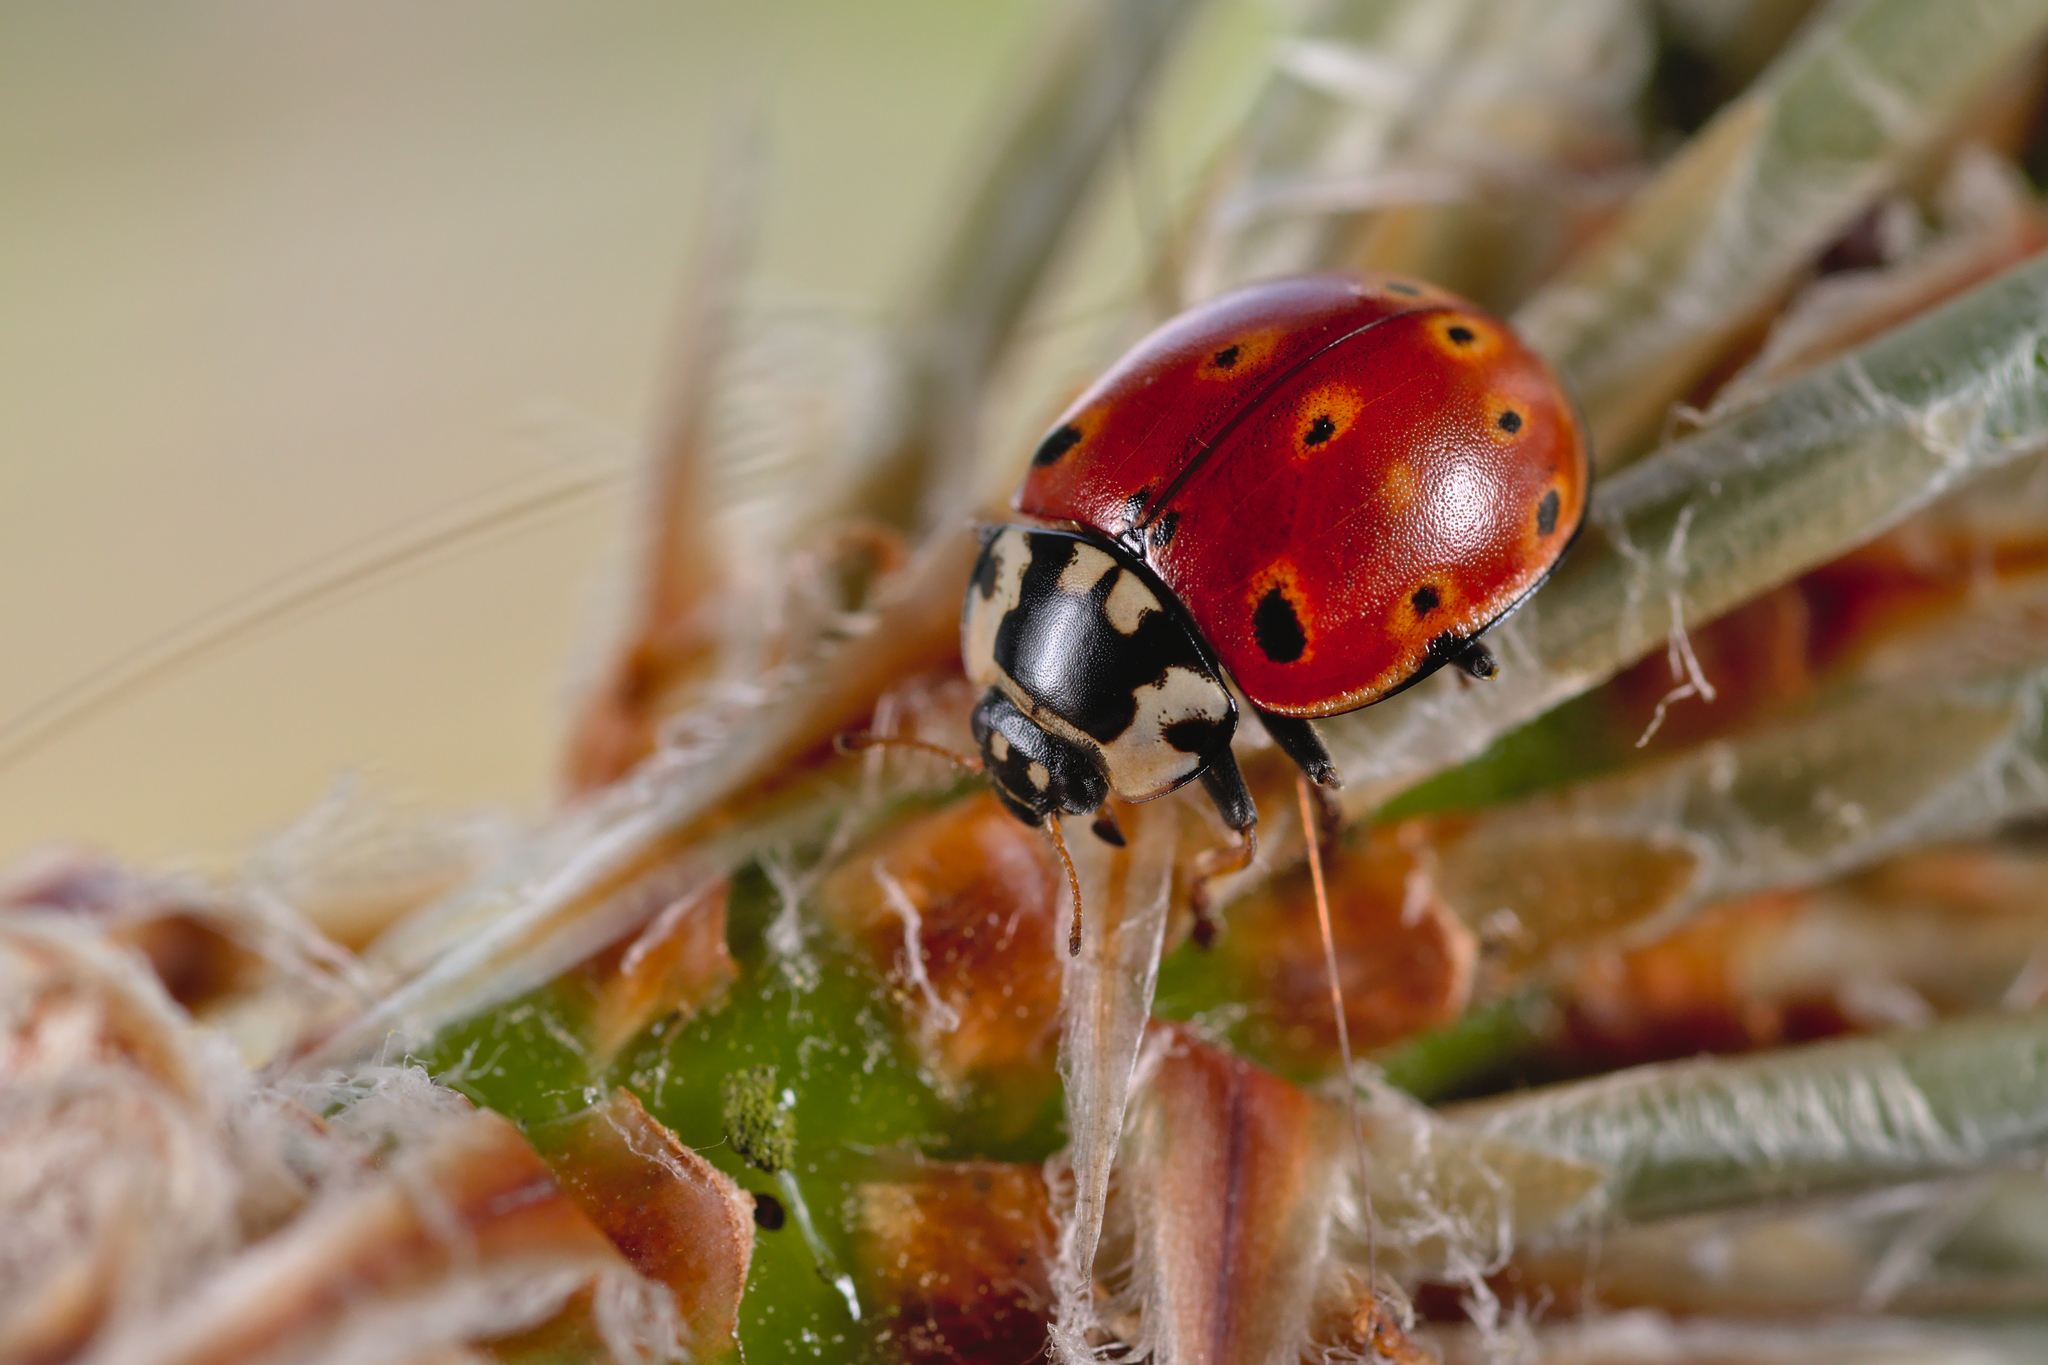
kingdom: Animalia
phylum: Arthropoda
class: Insecta
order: Coleoptera
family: Coccinellidae
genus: Anatis
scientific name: Anatis ocellata
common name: Eyed ladybird
